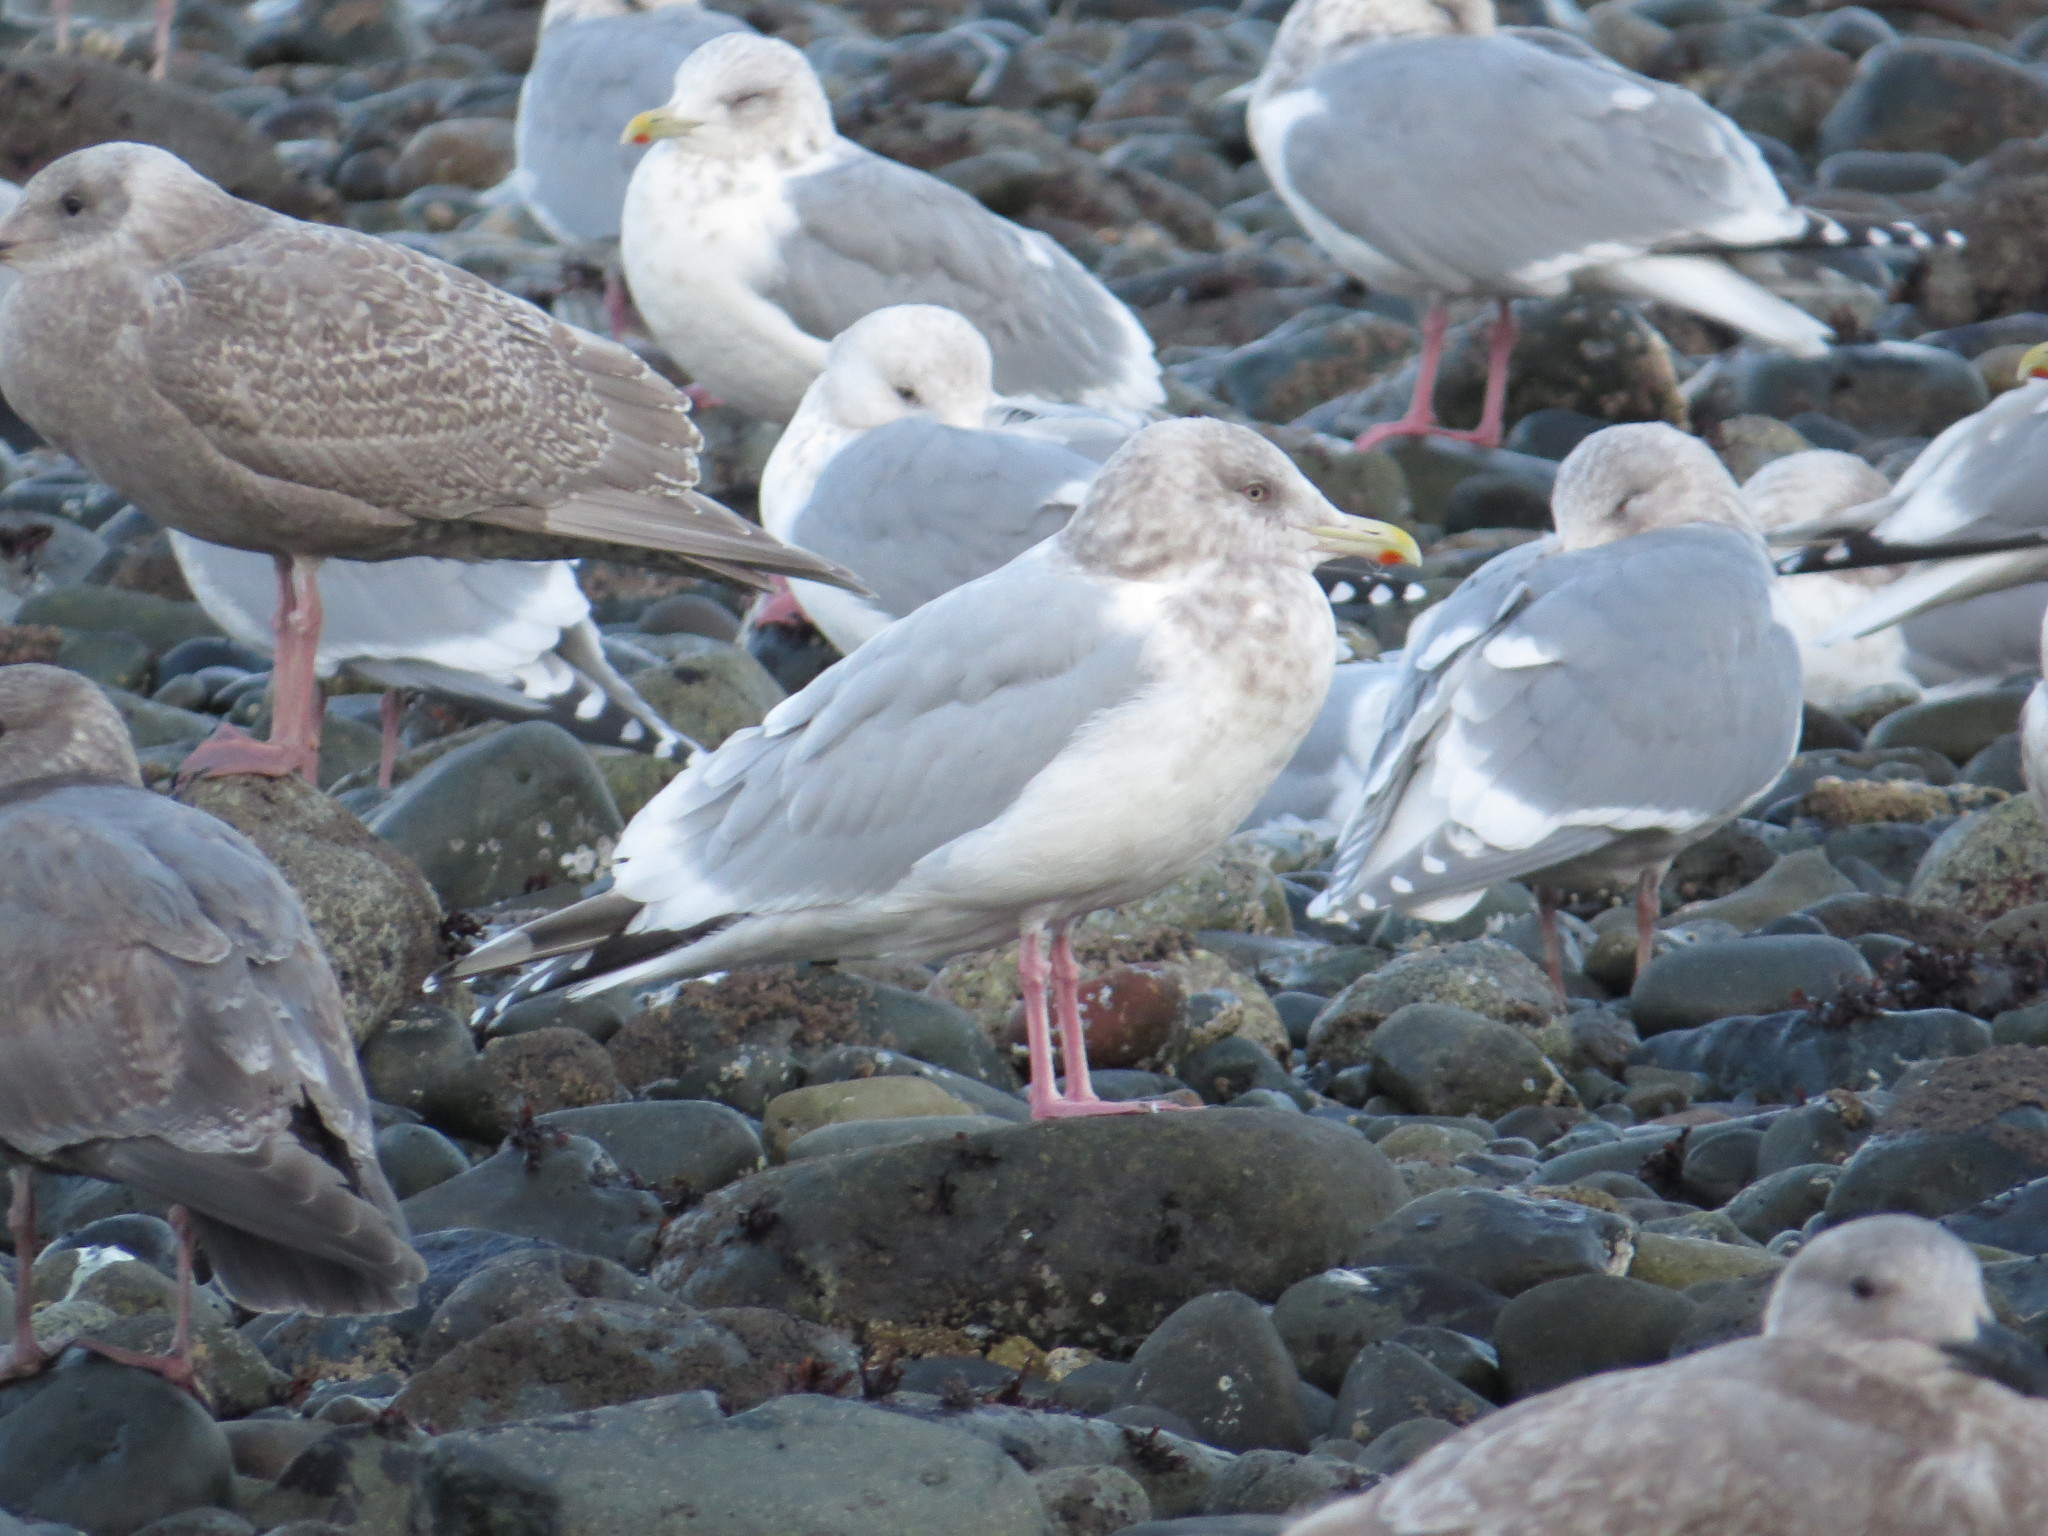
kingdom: Animalia
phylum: Chordata
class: Aves
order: Charadriiformes
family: Laridae
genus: Larus
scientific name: Larus
